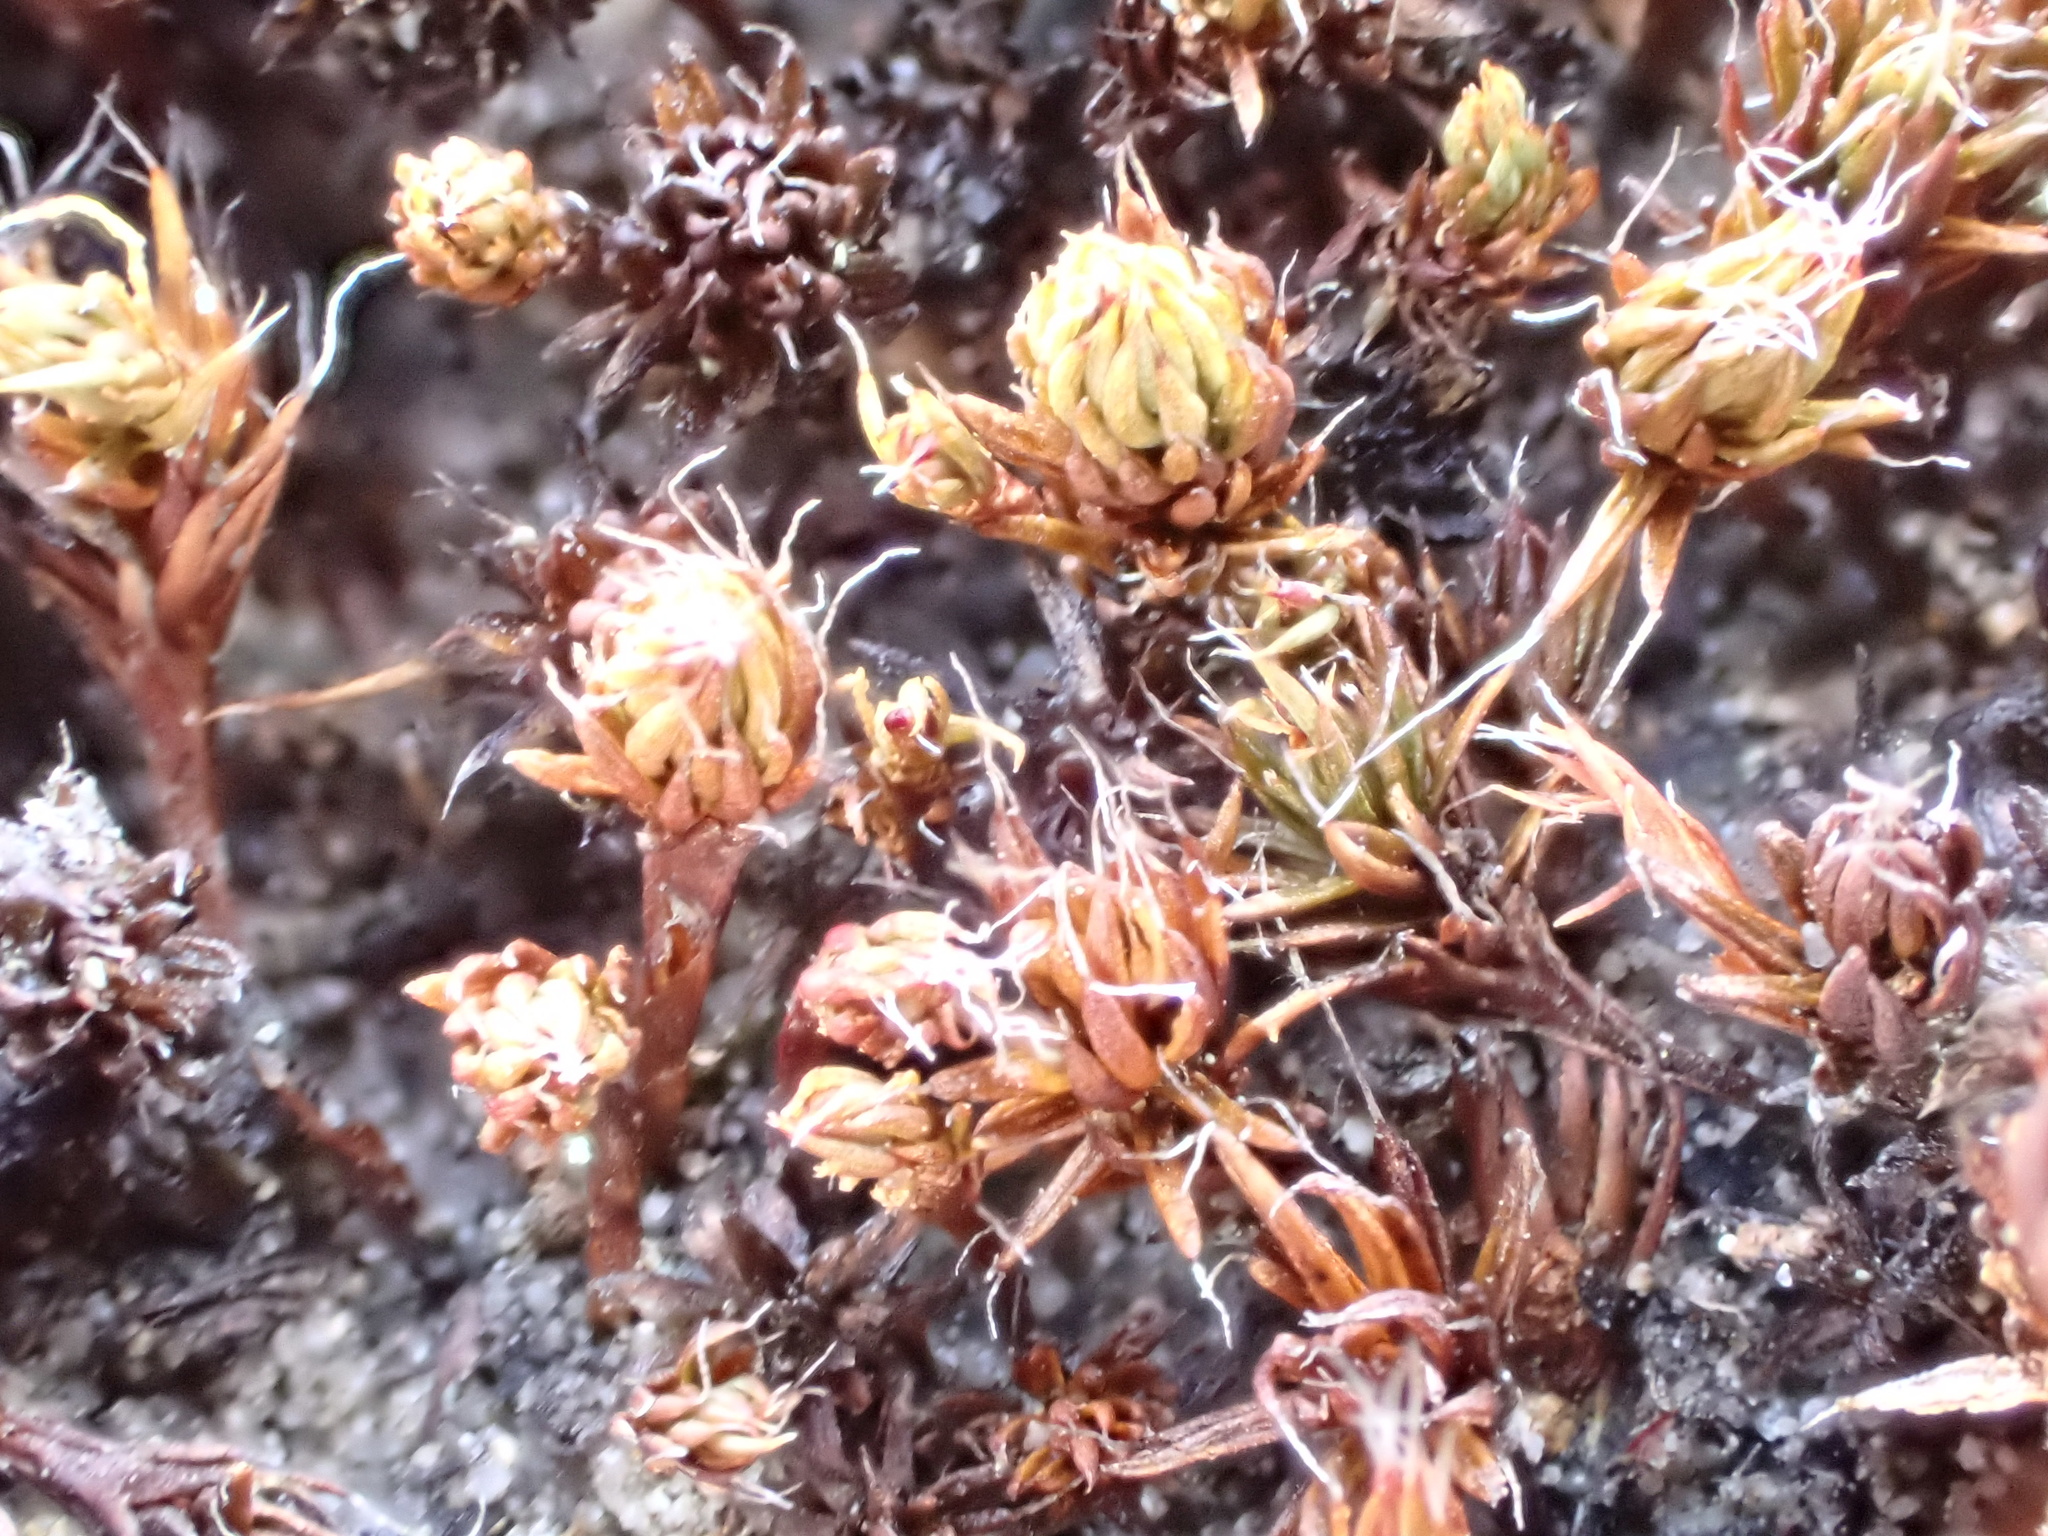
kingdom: Plantae
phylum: Bryophyta
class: Polytrichopsida
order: Polytrichales
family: Polytrichaceae
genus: Polytrichum
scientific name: Polytrichum piliferum
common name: Bristly haircap
